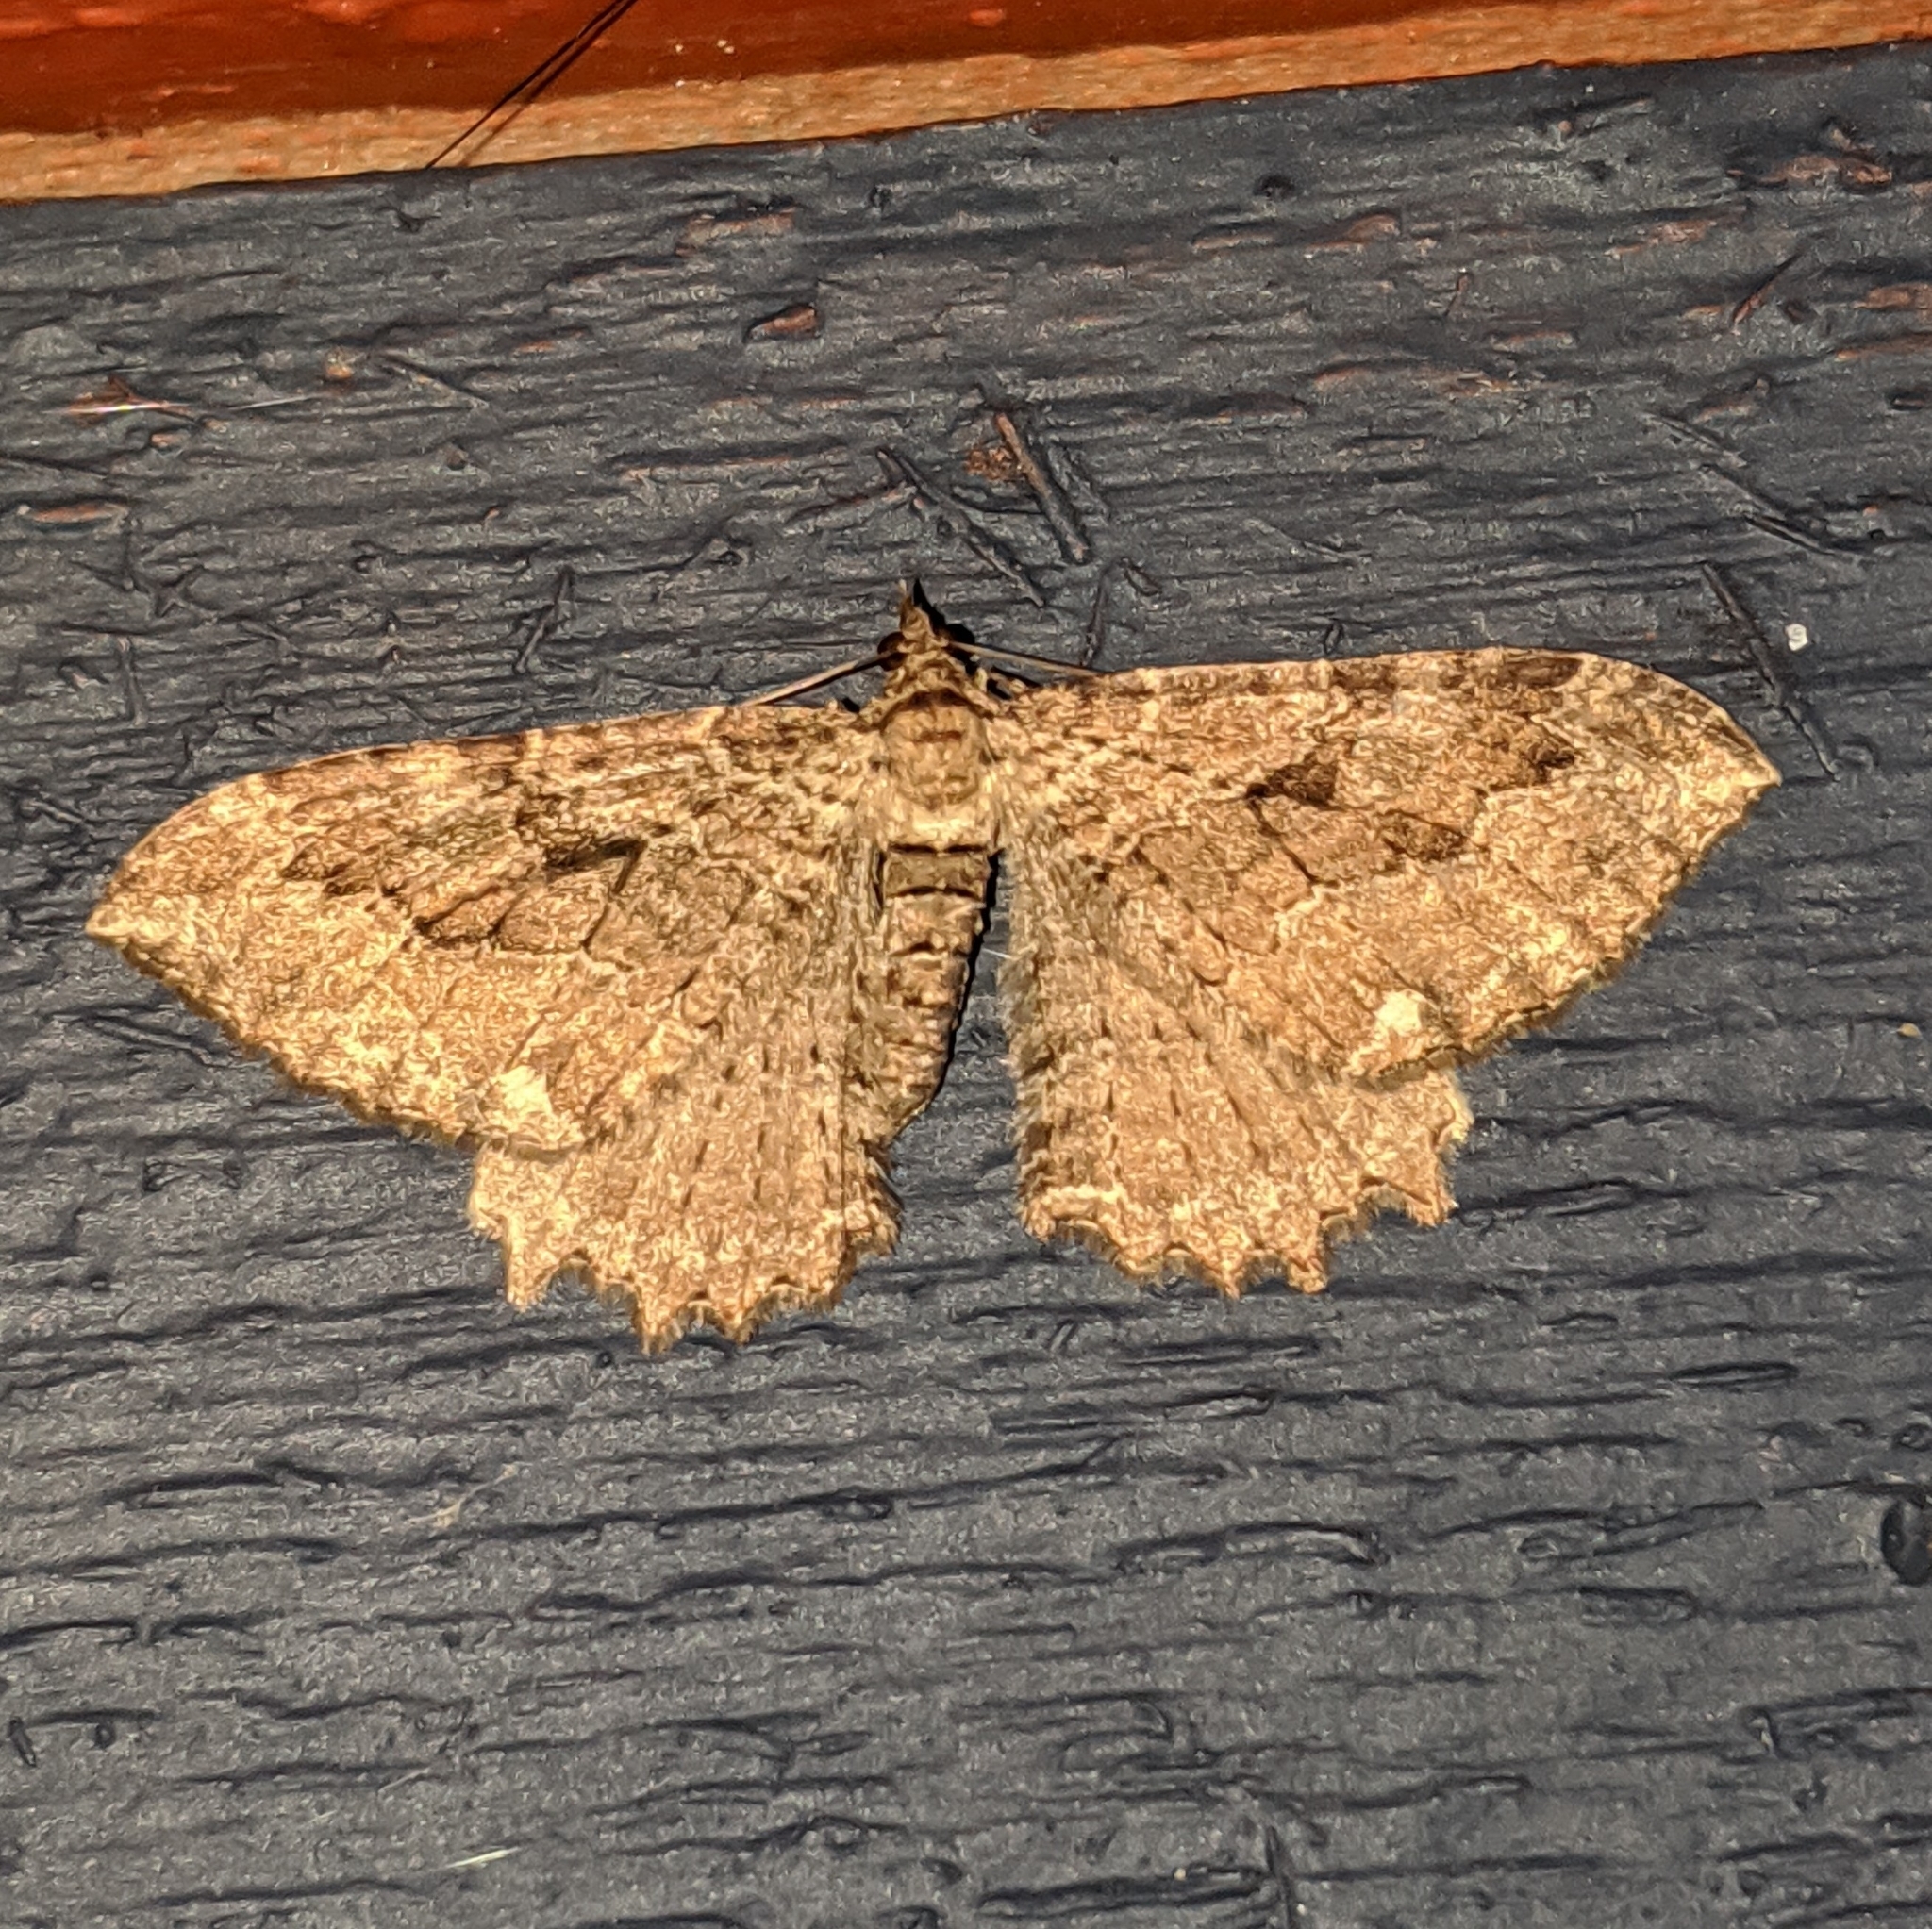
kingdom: Animalia
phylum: Arthropoda
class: Insecta
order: Lepidoptera
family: Geometridae
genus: Rheumaptera
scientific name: Rheumaptera
